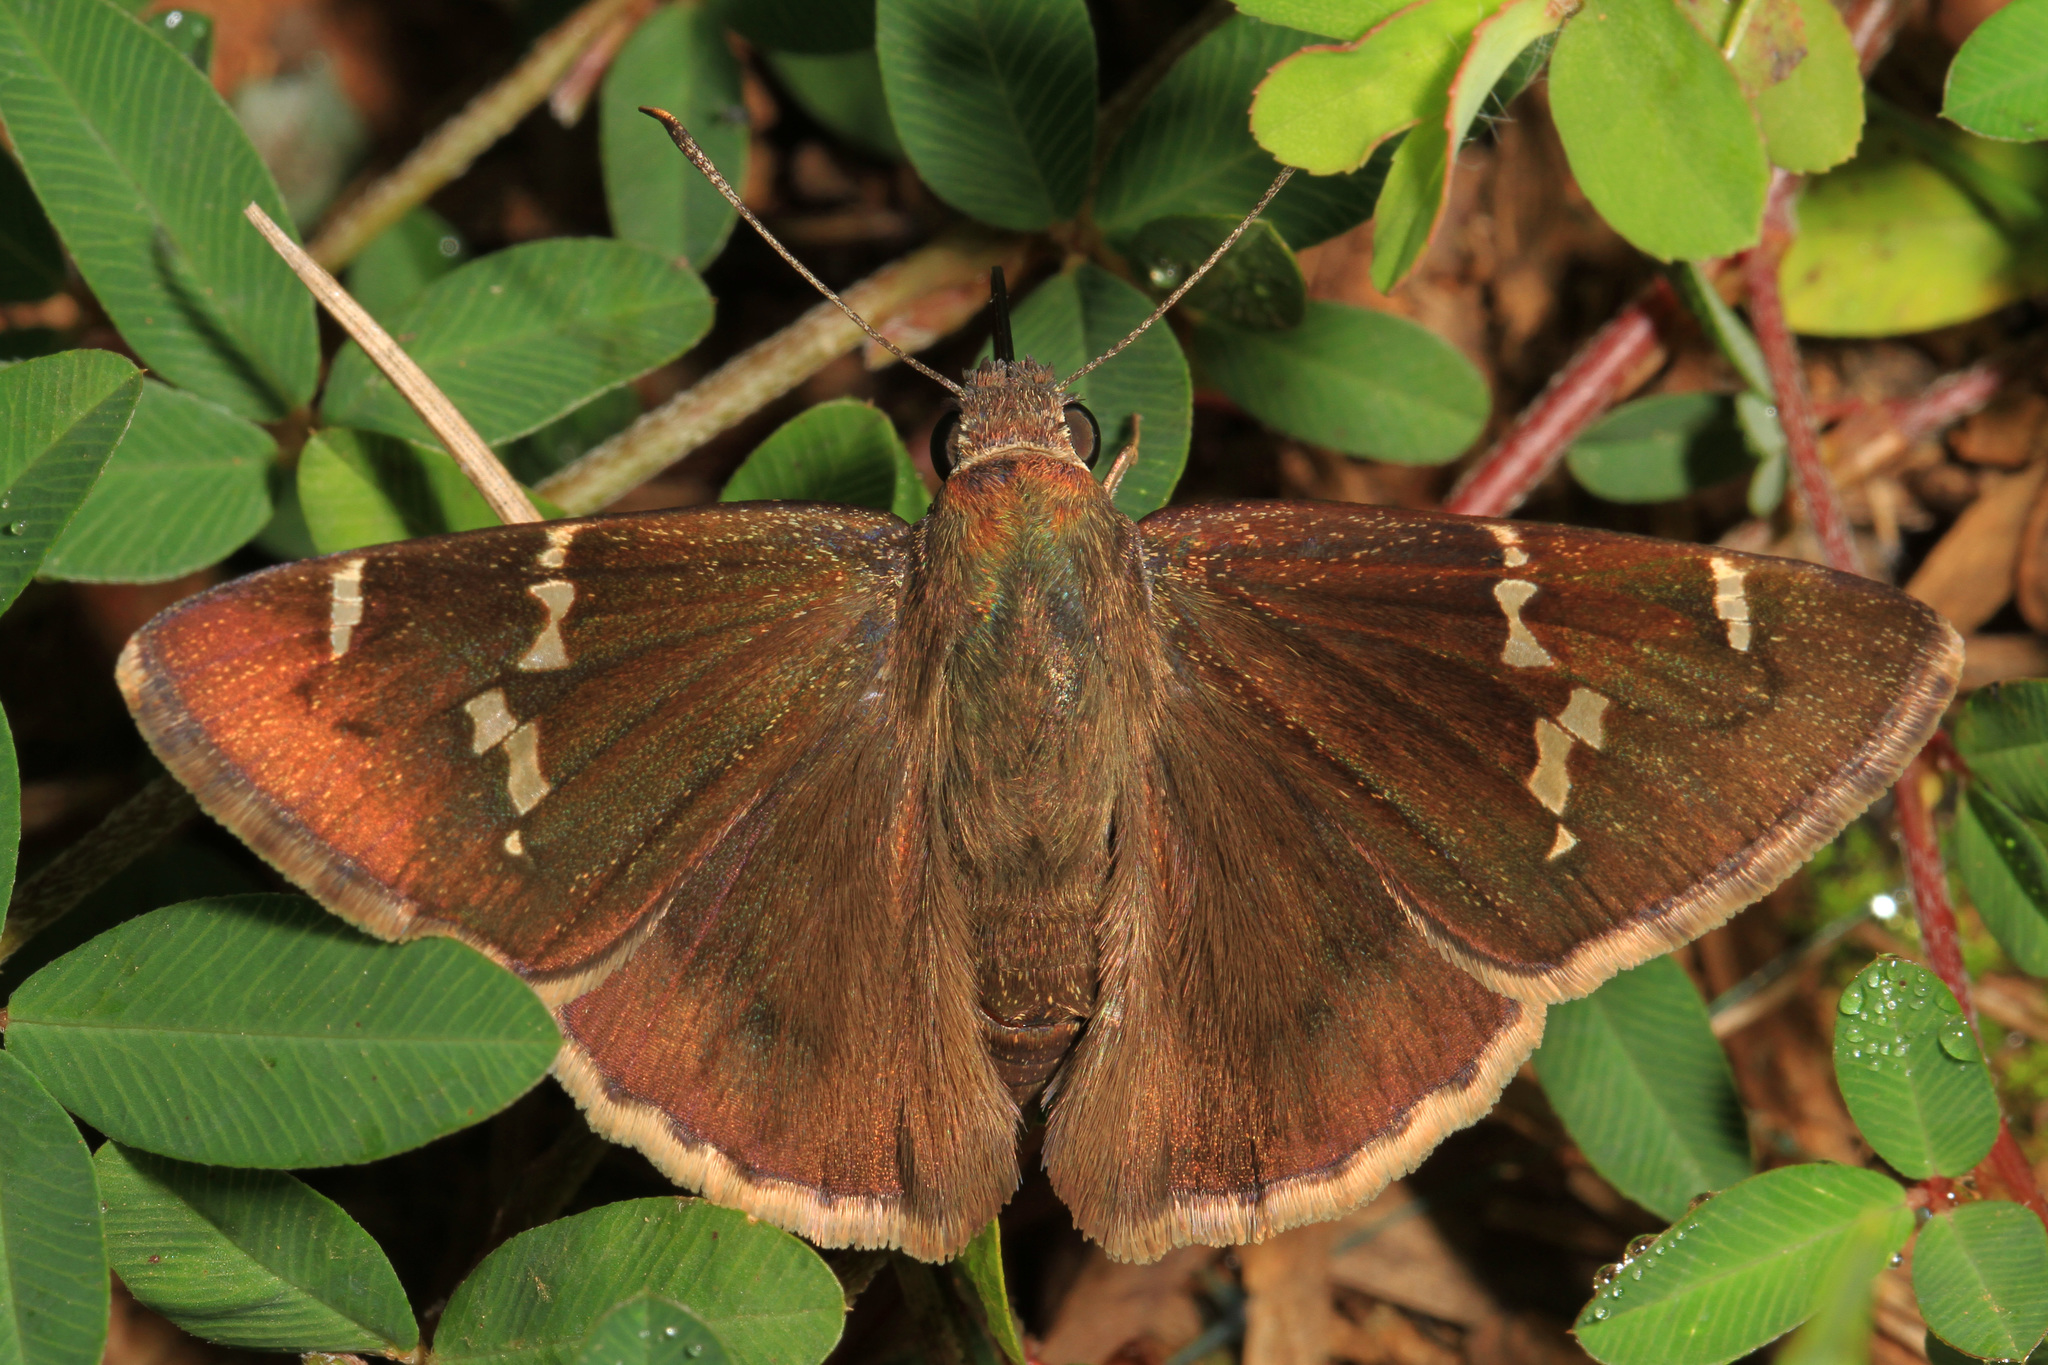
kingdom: Animalia
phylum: Arthropoda
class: Insecta
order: Lepidoptera
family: Hesperiidae
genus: Thorybes
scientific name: Thorybes daunus
